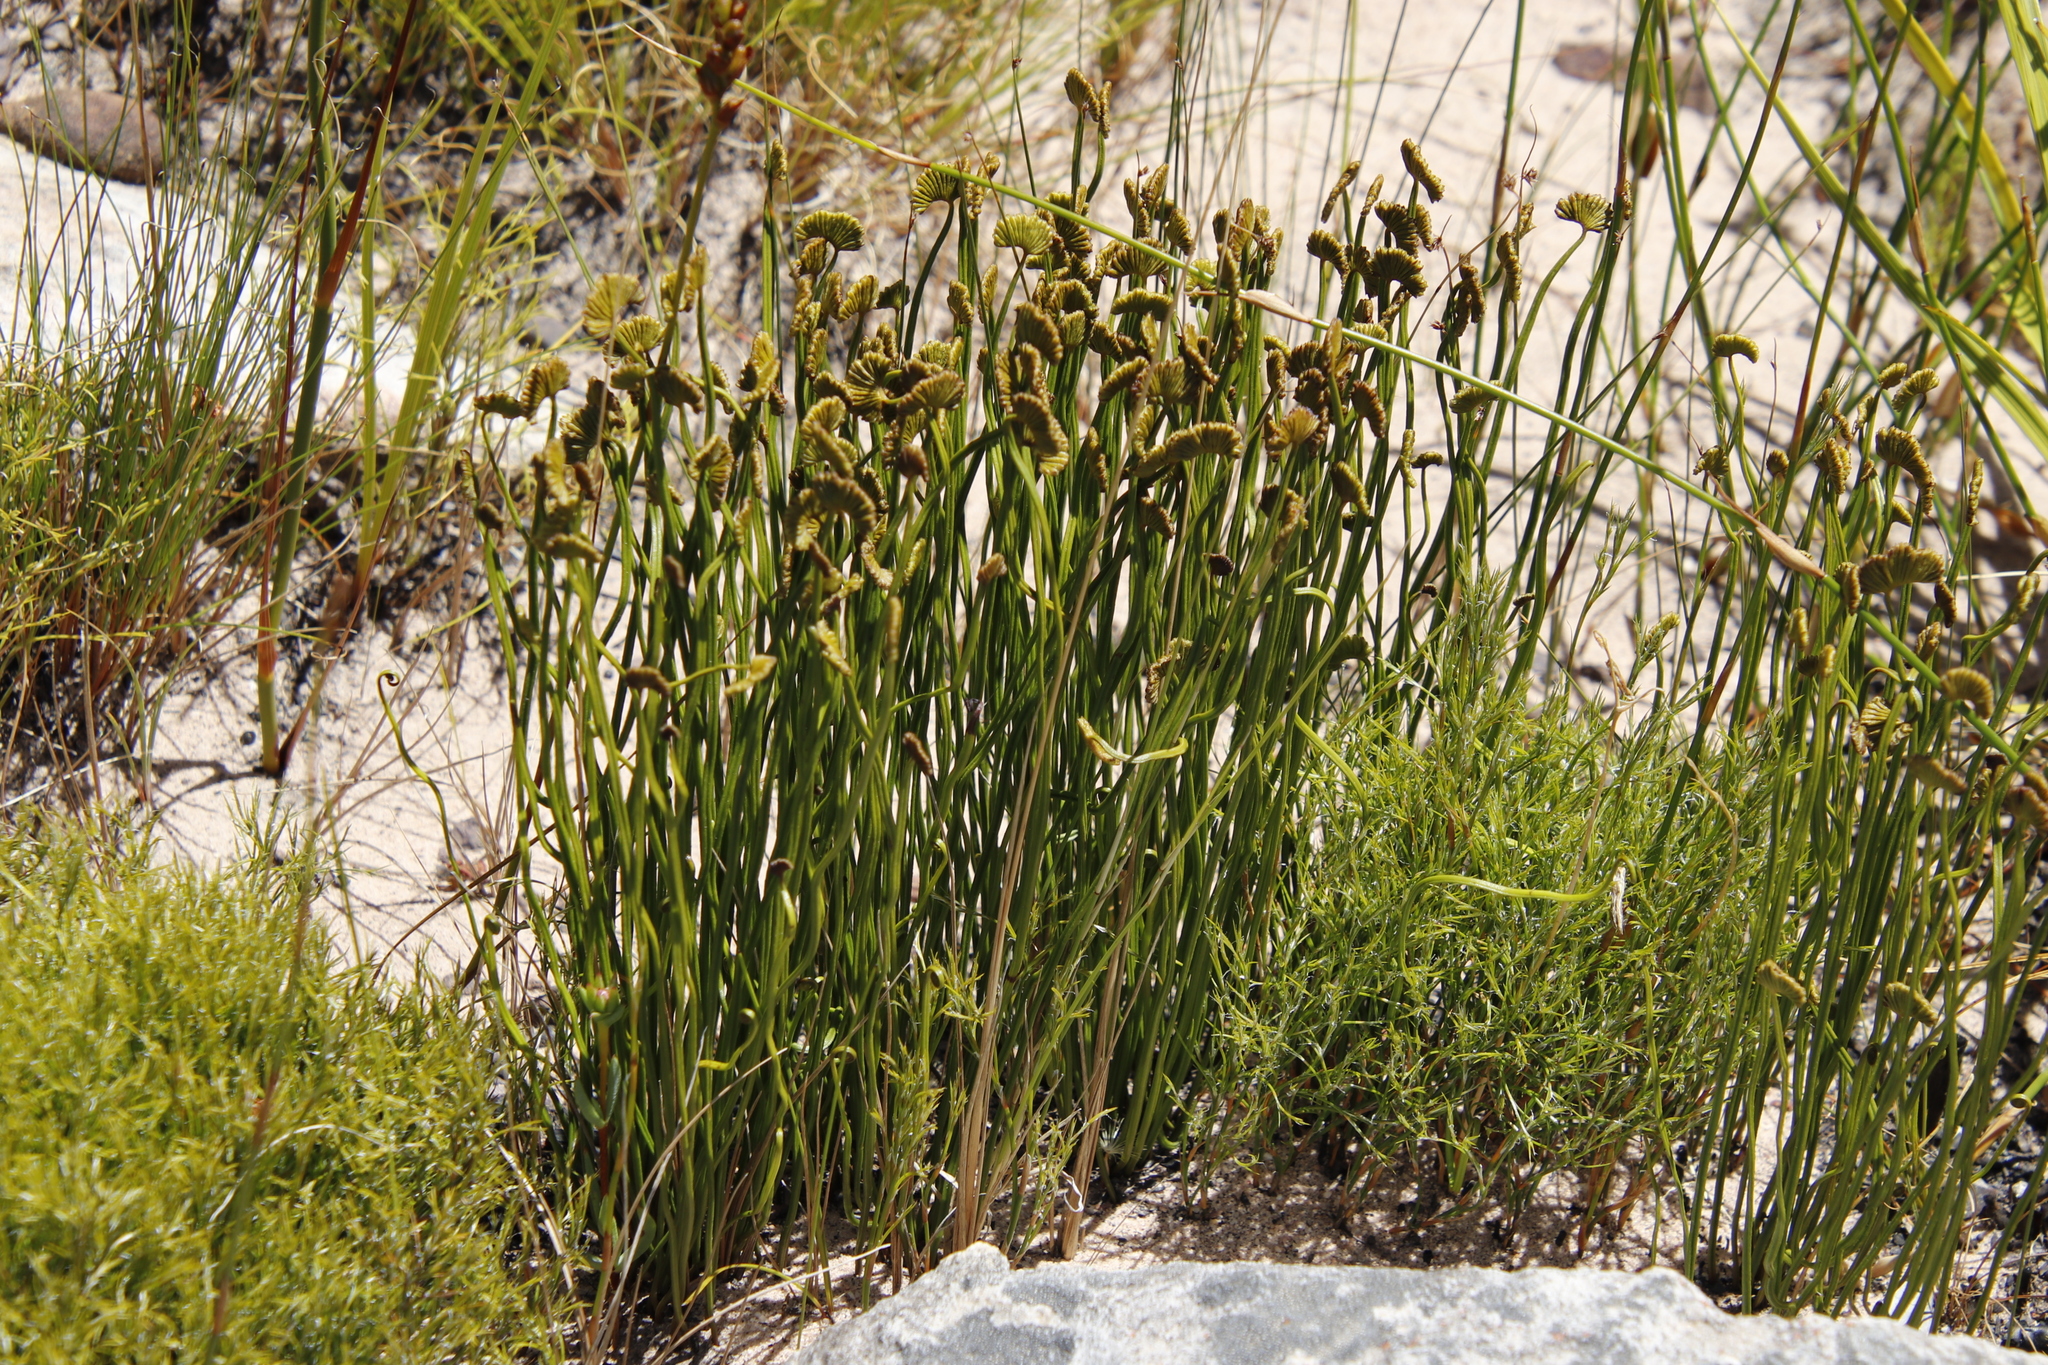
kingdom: Plantae
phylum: Tracheophyta
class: Polypodiopsida
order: Schizaeales
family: Schizaeaceae
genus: Schizaea
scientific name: Schizaea pectinata
